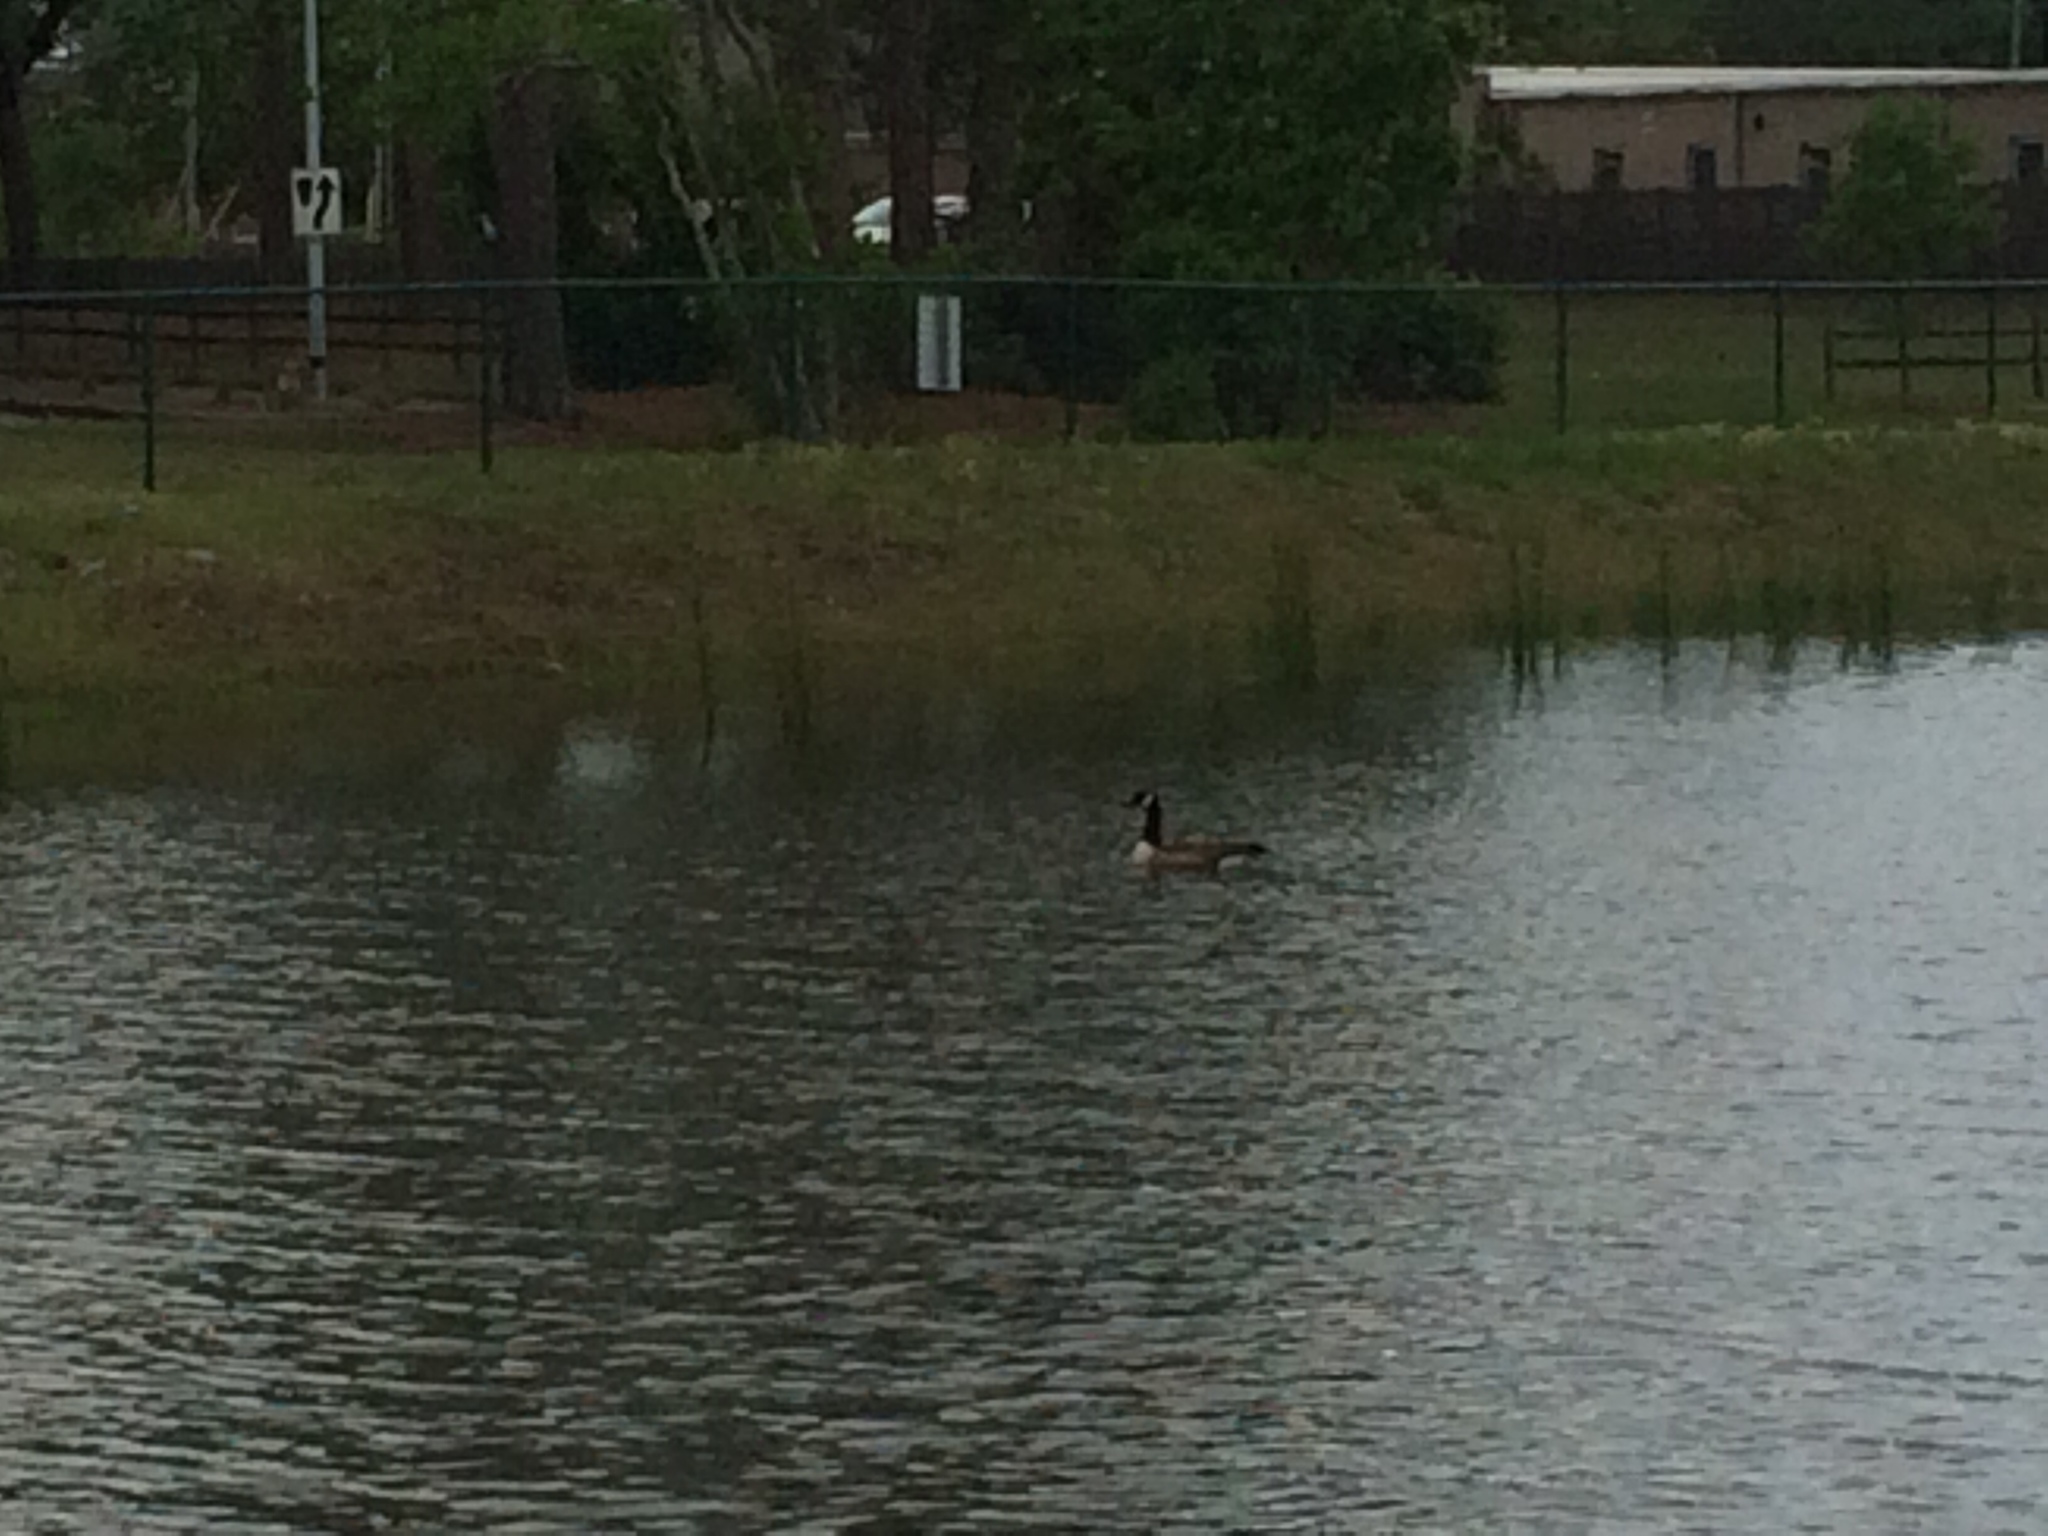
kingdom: Animalia
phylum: Chordata
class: Aves
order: Anseriformes
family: Anatidae
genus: Branta
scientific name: Branta canadensis
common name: Canada goose
